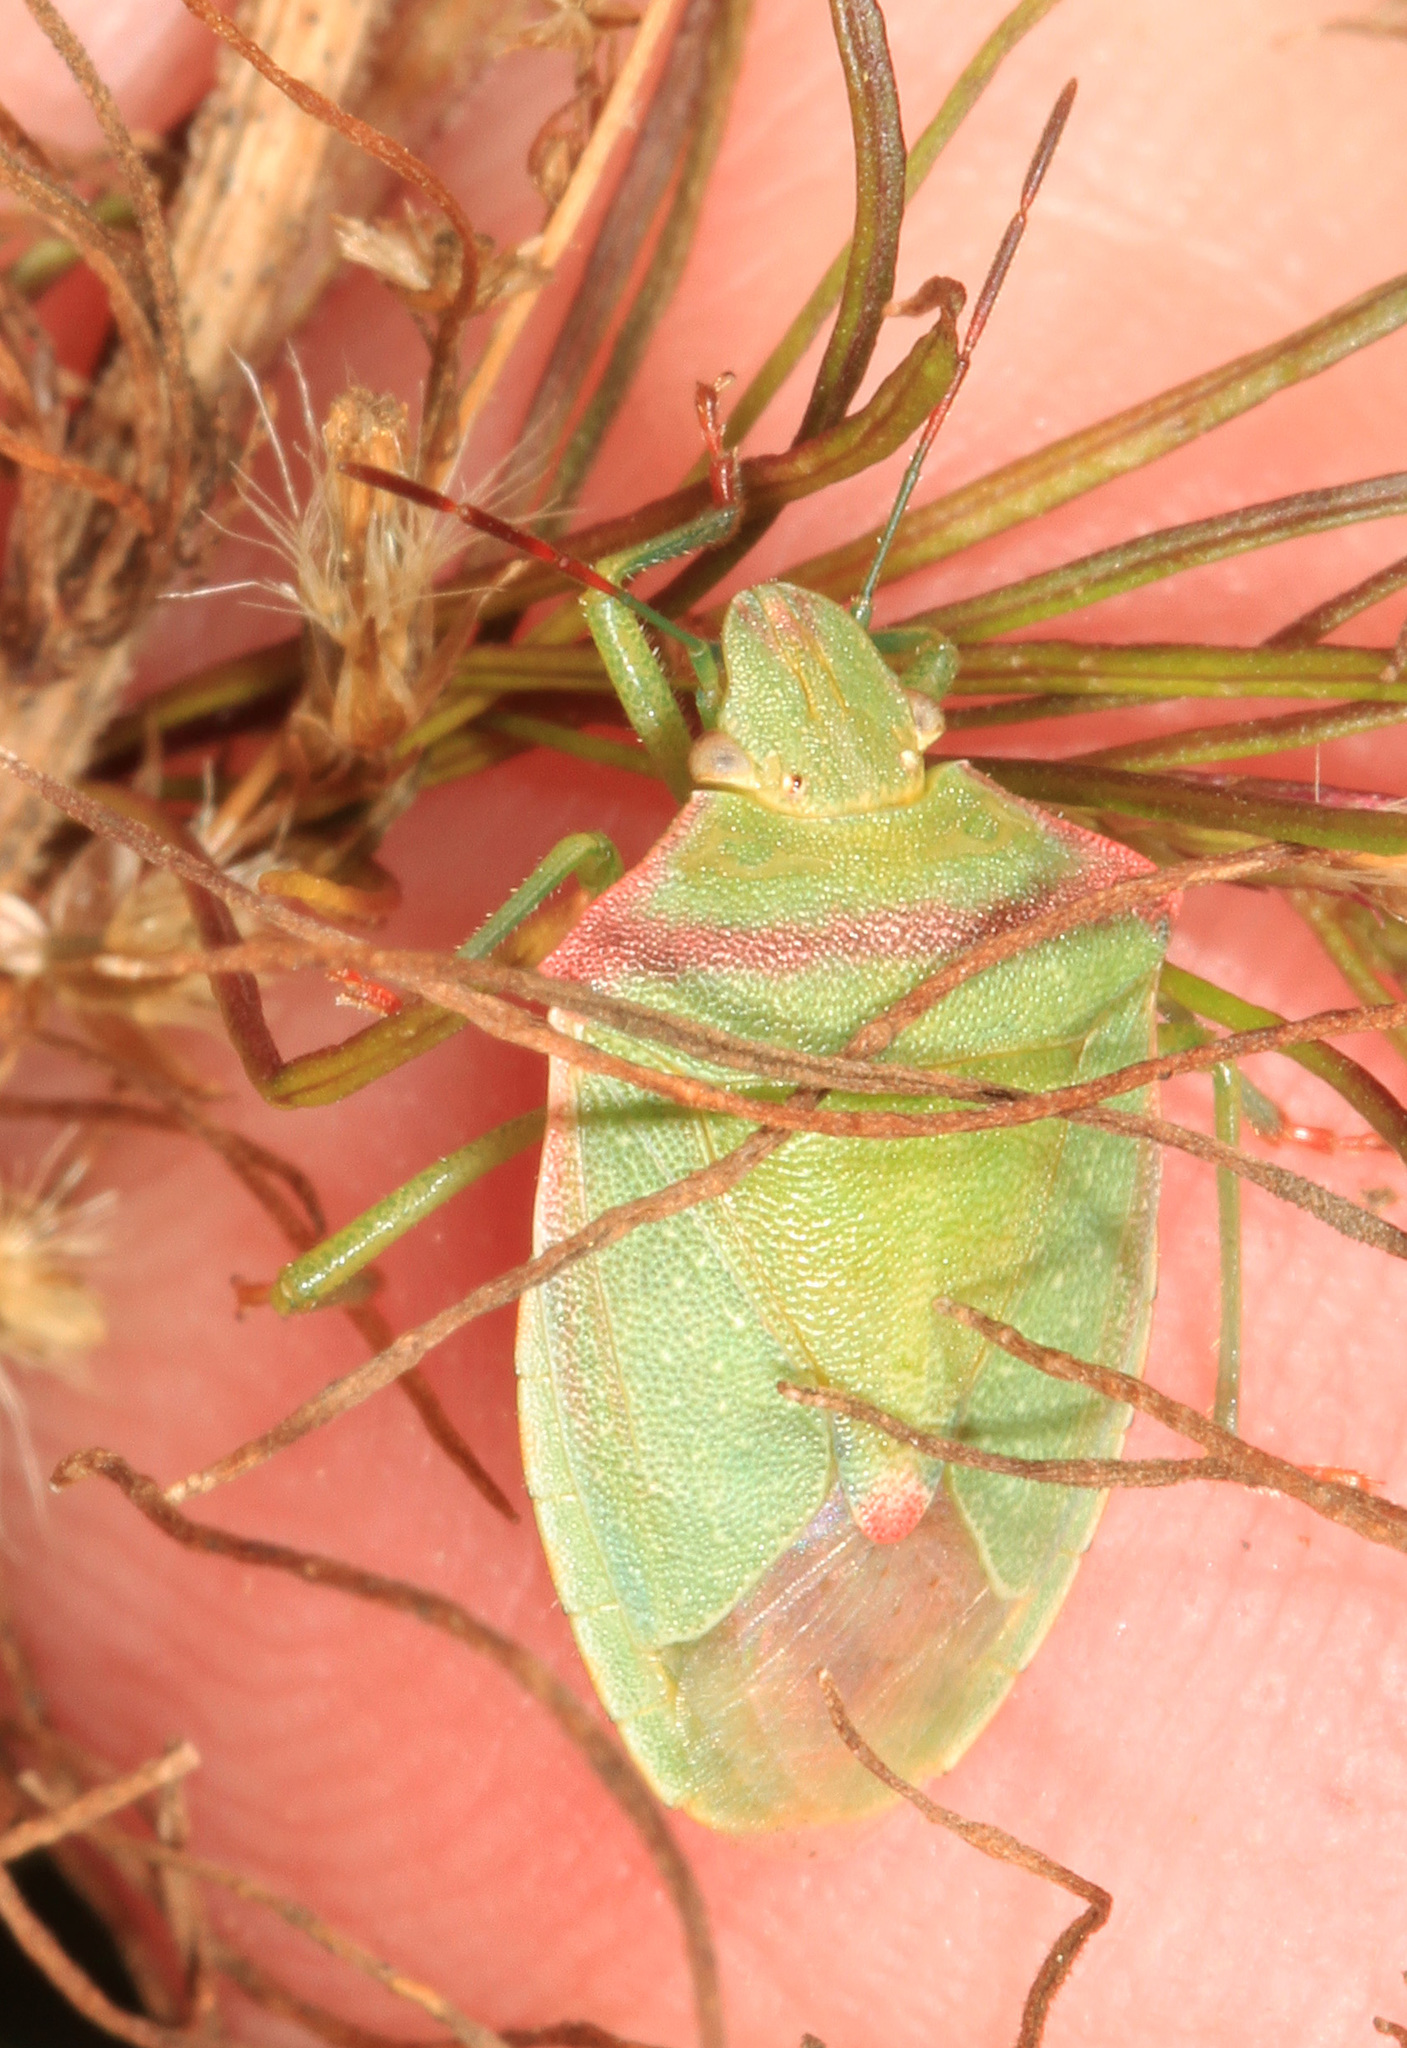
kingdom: Animalia
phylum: Arthropoda
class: Insecta
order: Hemiptera
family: Pentatomidae
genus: Thyanta
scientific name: Thyanta custator
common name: Stink bug
